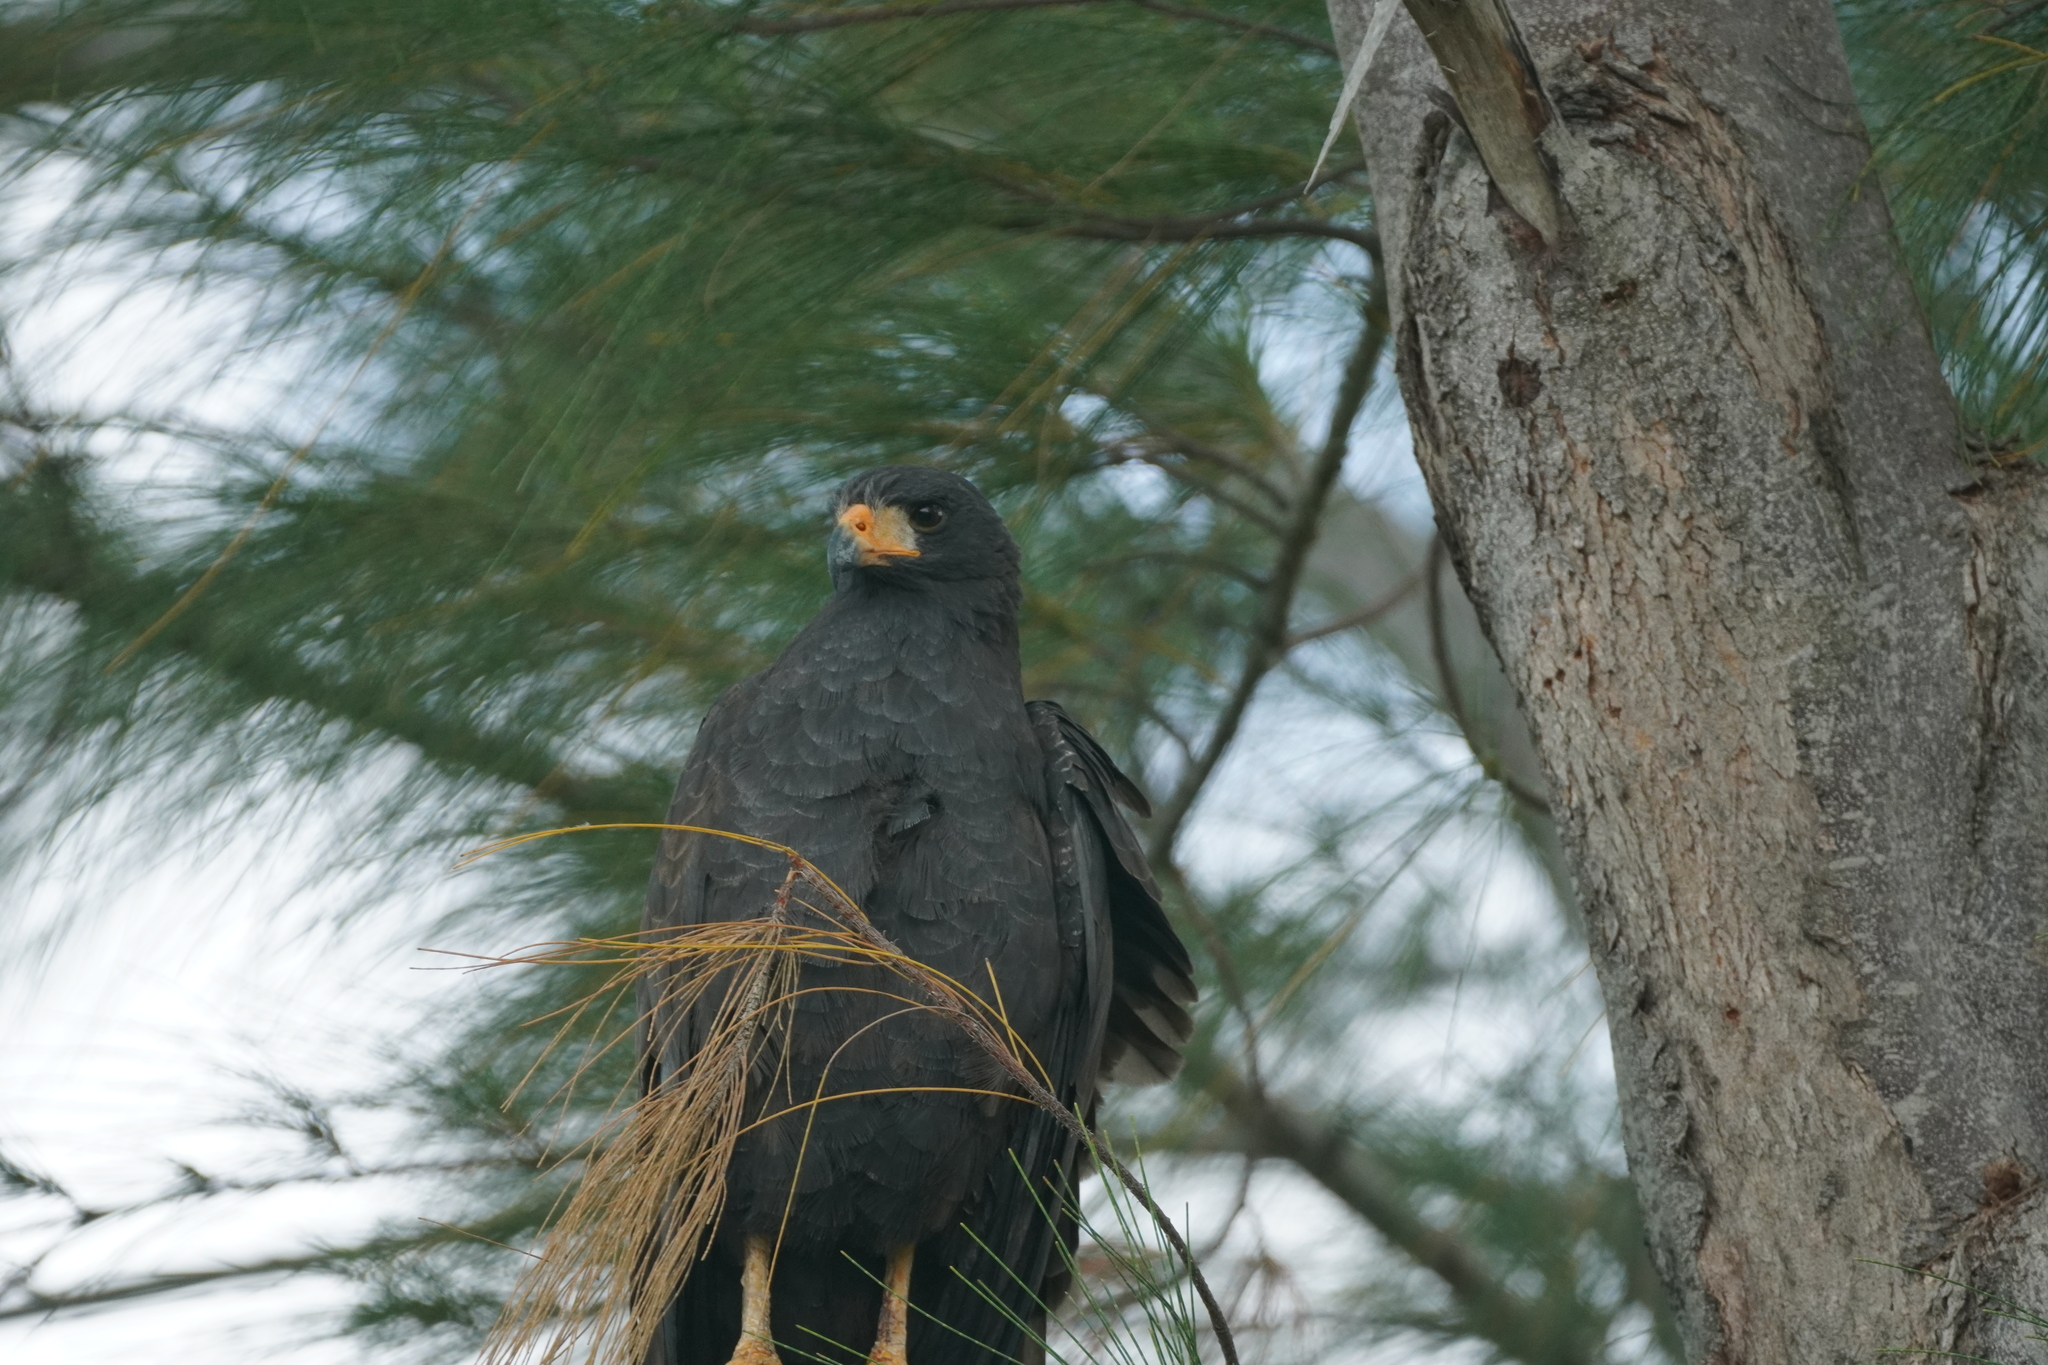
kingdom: Animalia
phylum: Chordata
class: Aves
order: Accipitriformes
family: Accipitridae
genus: Buteogallus
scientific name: Buteogallus anthracinus
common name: Common black hawk
